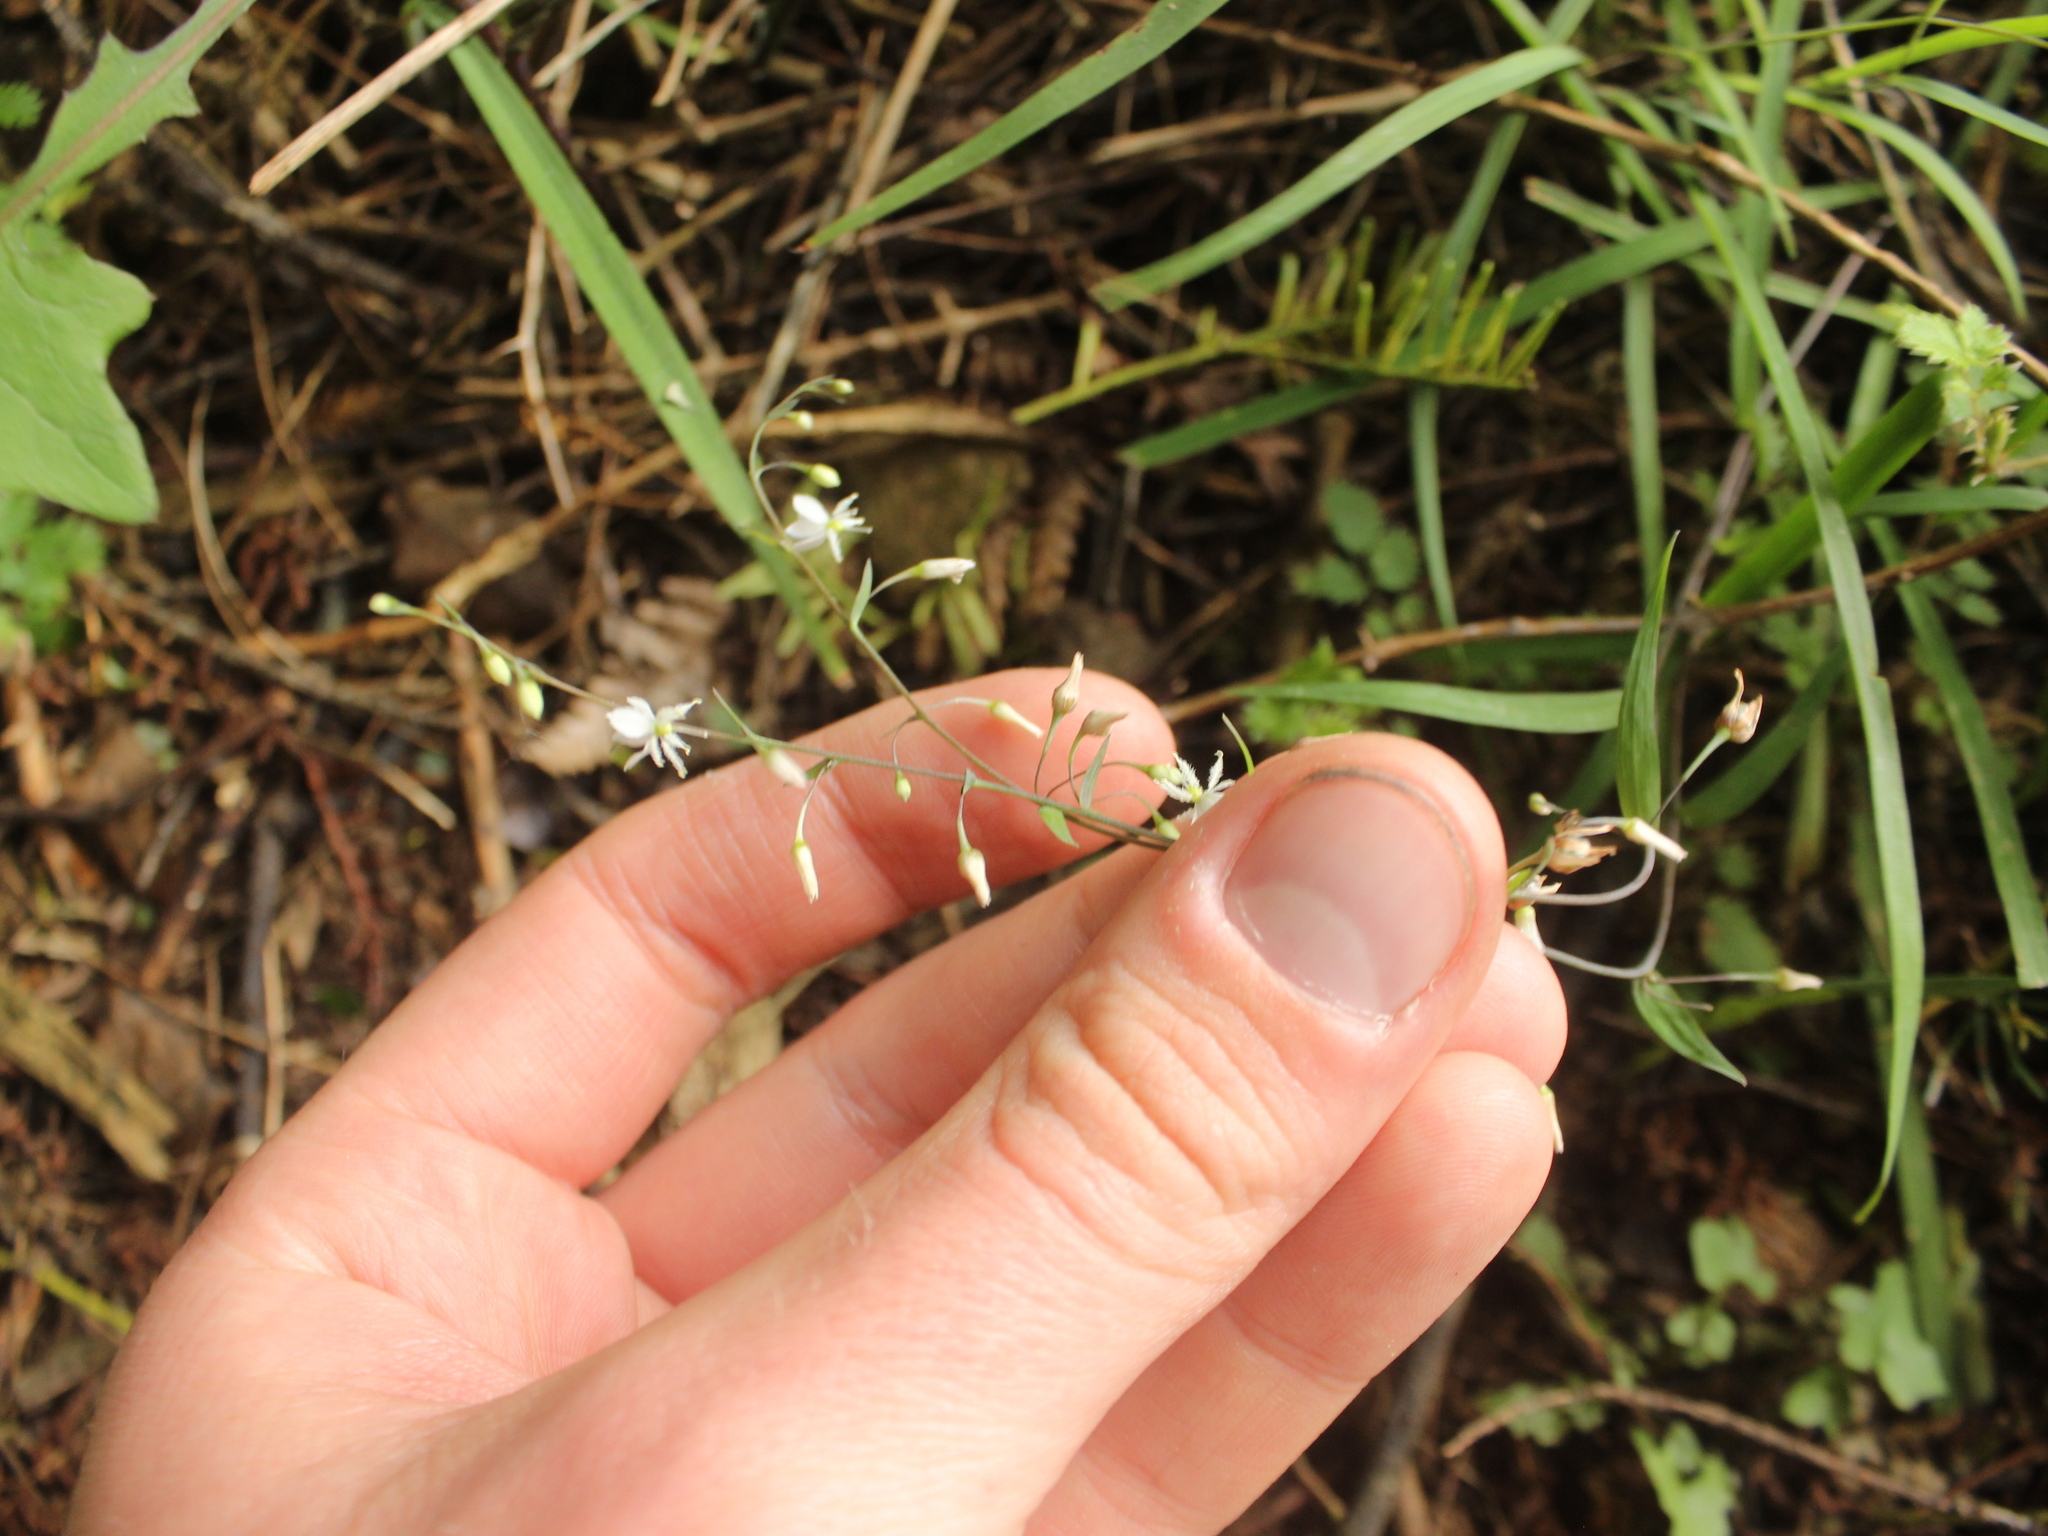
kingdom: Plantae
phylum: Tracheophyta
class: Liliopsida
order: Asparagales
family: Asparagaceae
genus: Arthropodium
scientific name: Arthropodium candidum
